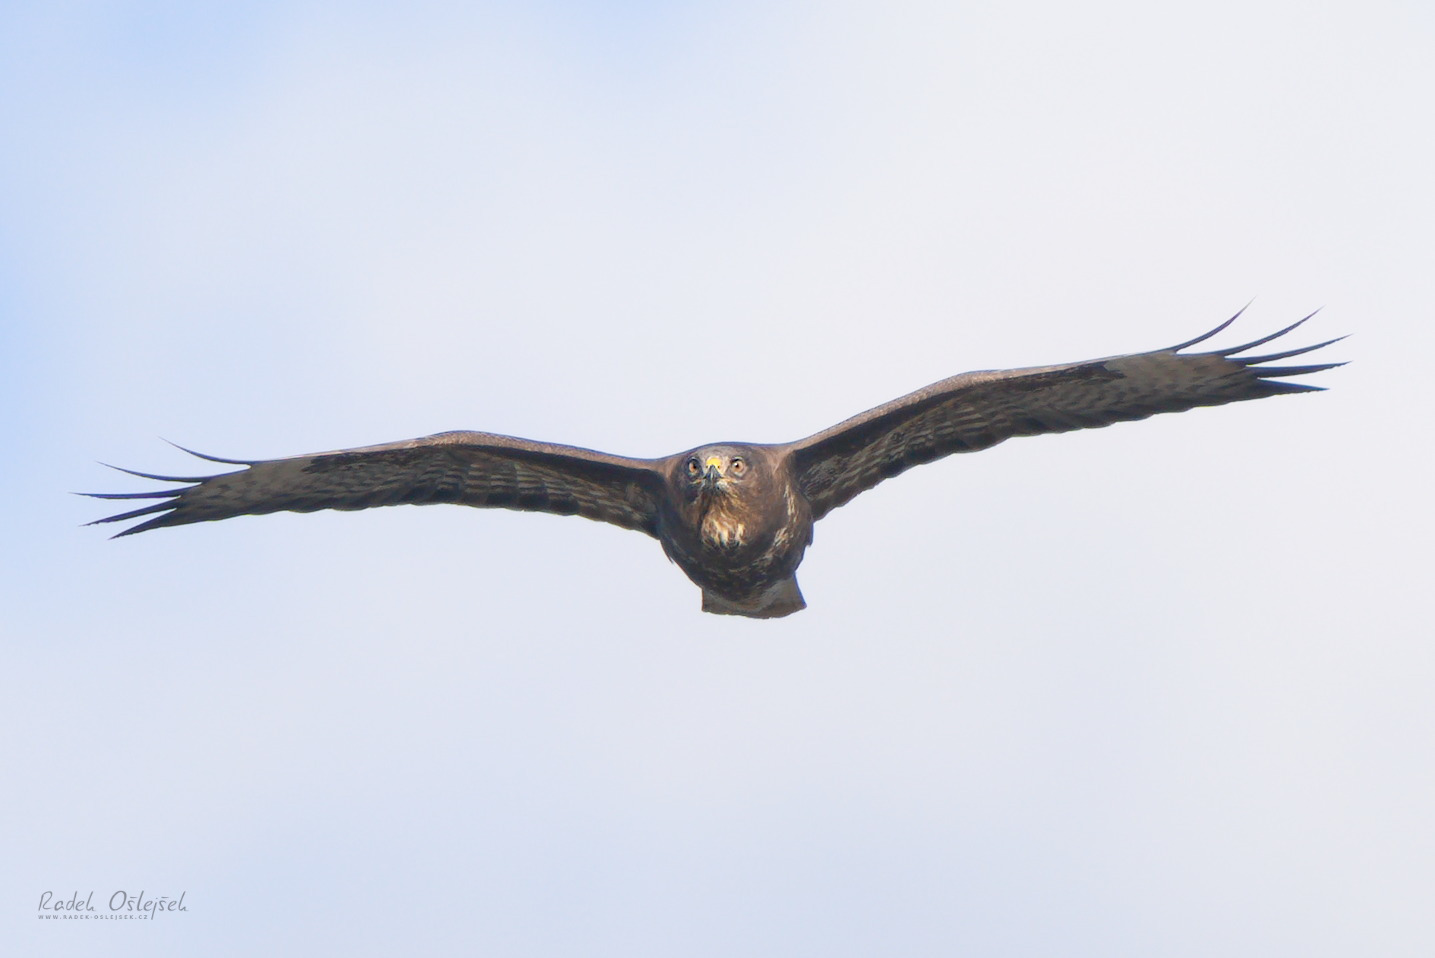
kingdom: Animalia
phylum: Chordata
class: Aves
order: Accipitriformes
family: Accipitridae
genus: Buteo
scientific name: Buteo buteo
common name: Common buzzard
